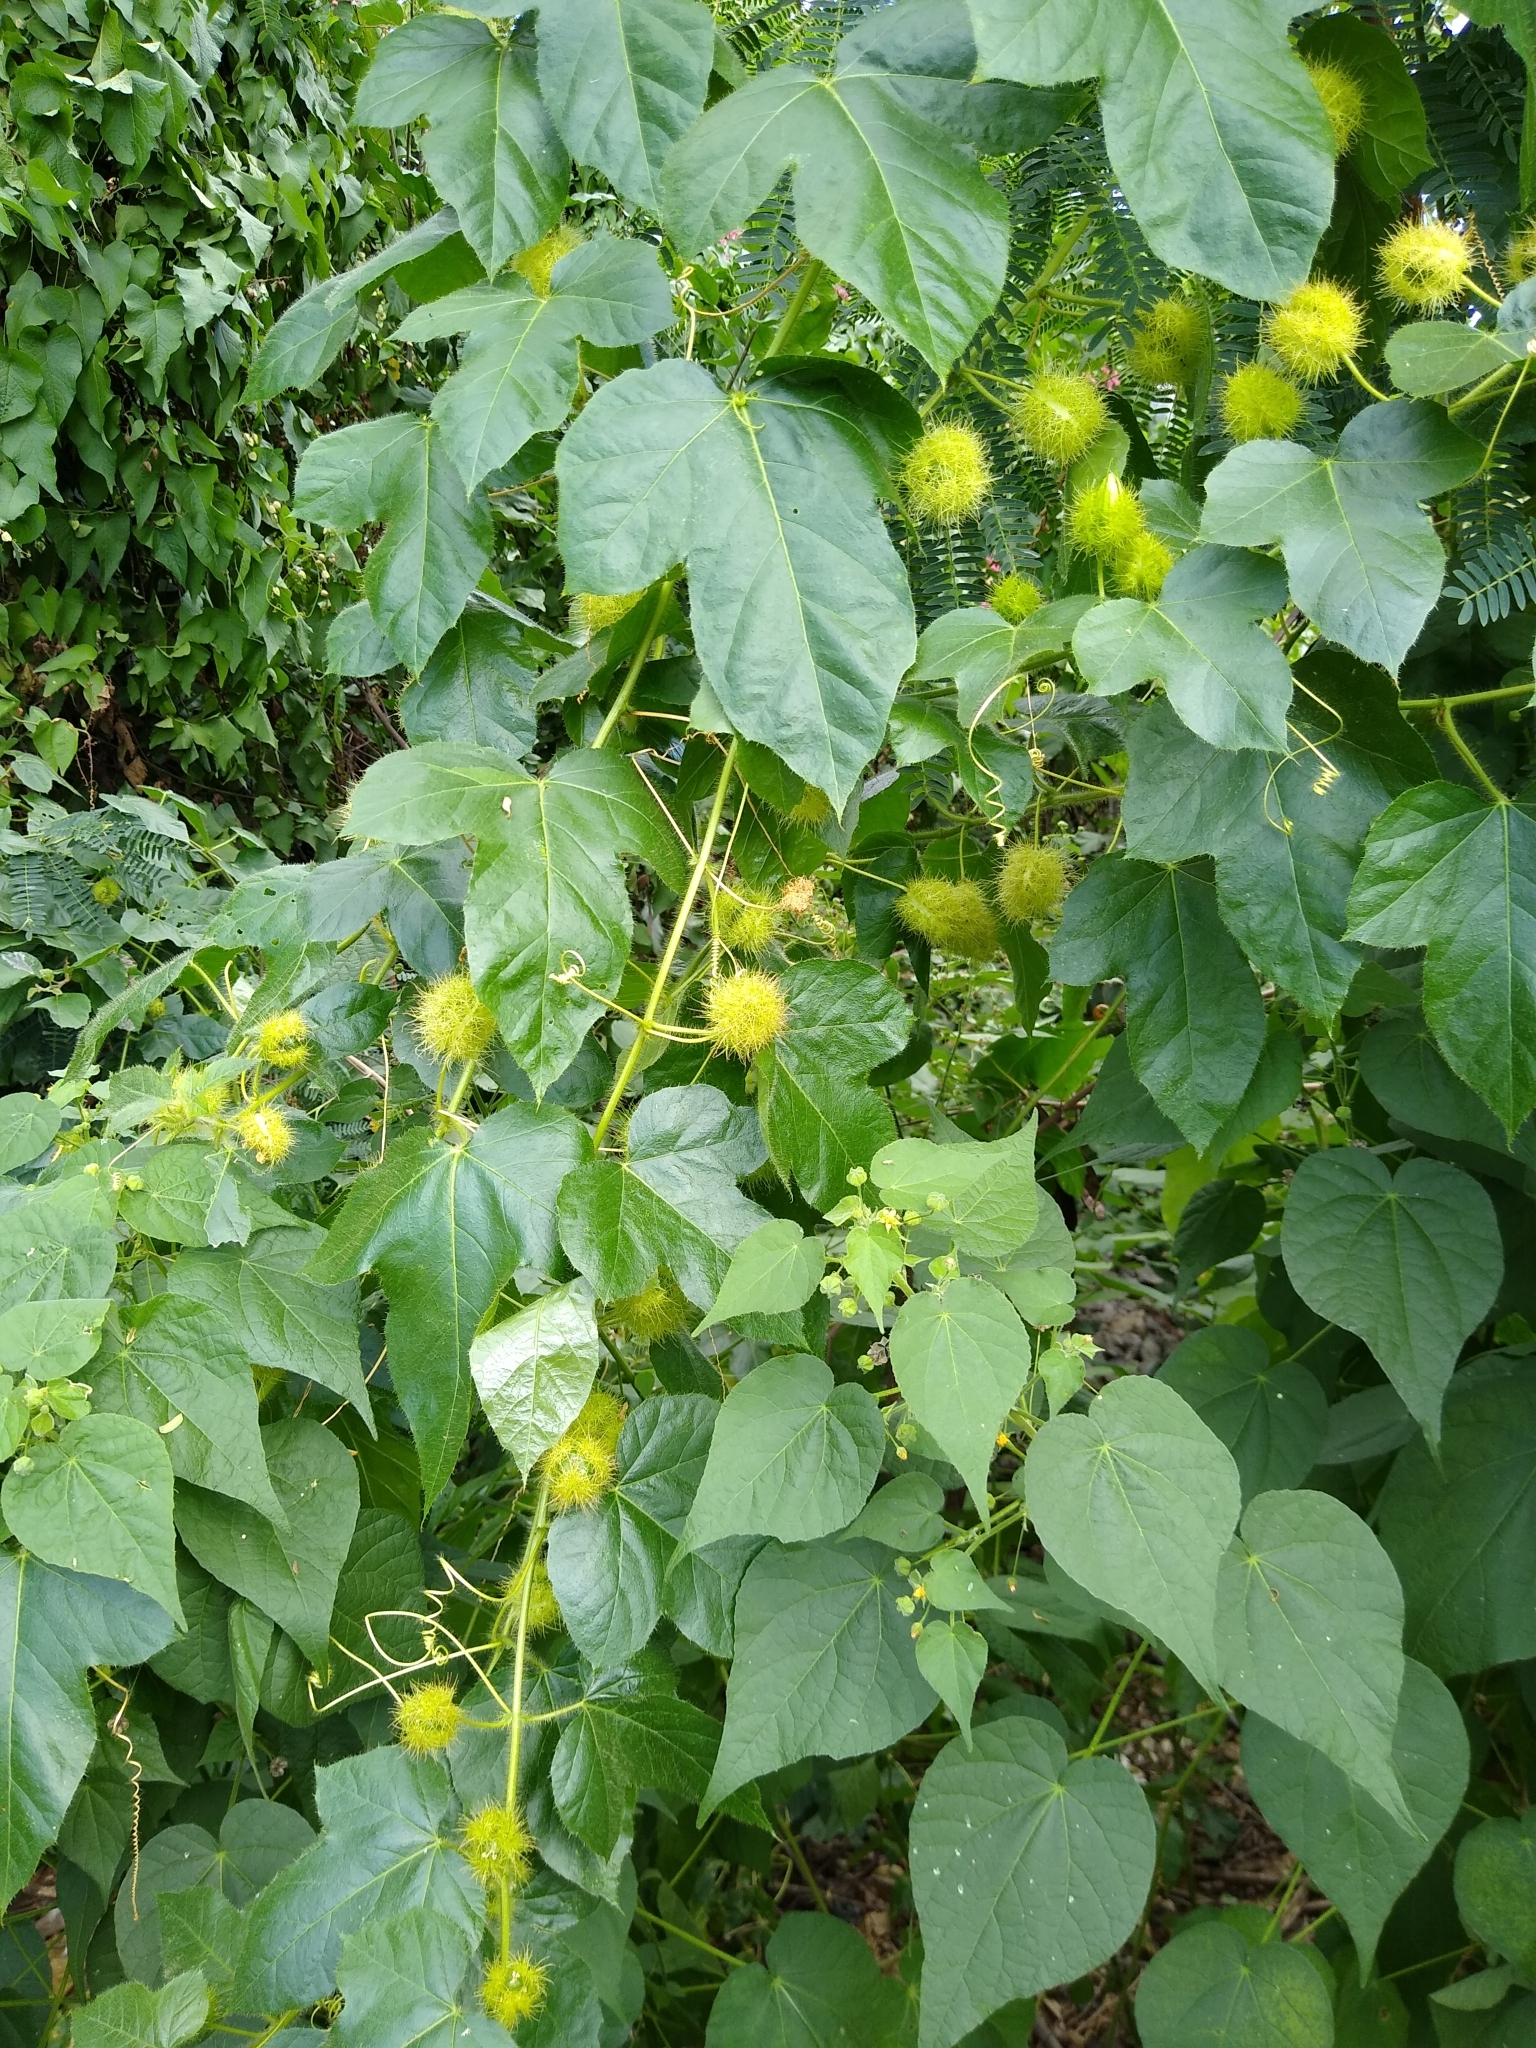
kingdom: Plantae
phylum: Tracheophyta
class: Magnoliopsida
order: Malpighiales
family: Passifloraceae
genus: Passiflora
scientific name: Passiflora foetida
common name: Fetid passionflower
